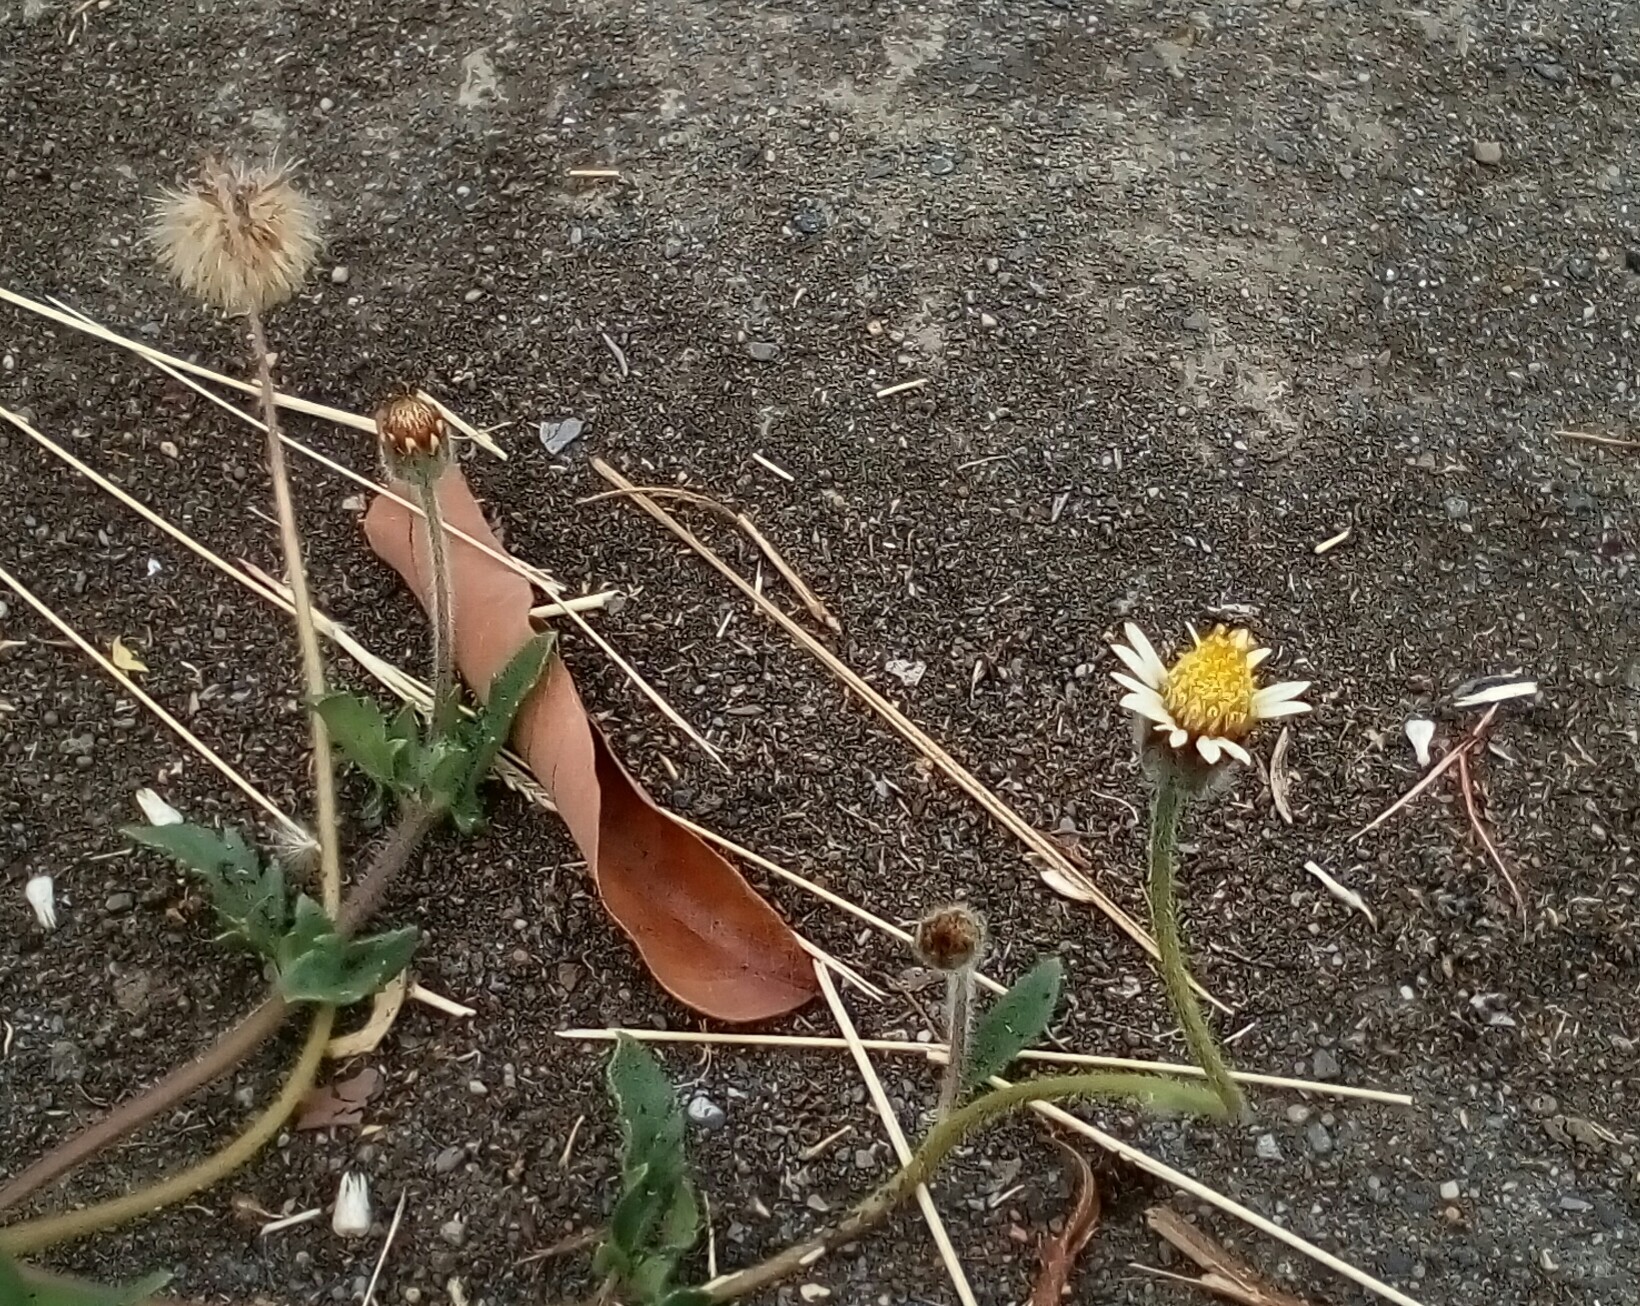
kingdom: Plantae
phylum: Tracheophyta
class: Magnoliopsida
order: Asterales
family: Asteraceae
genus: Tridax
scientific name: Tridax procumbens
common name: Coatbuttons
